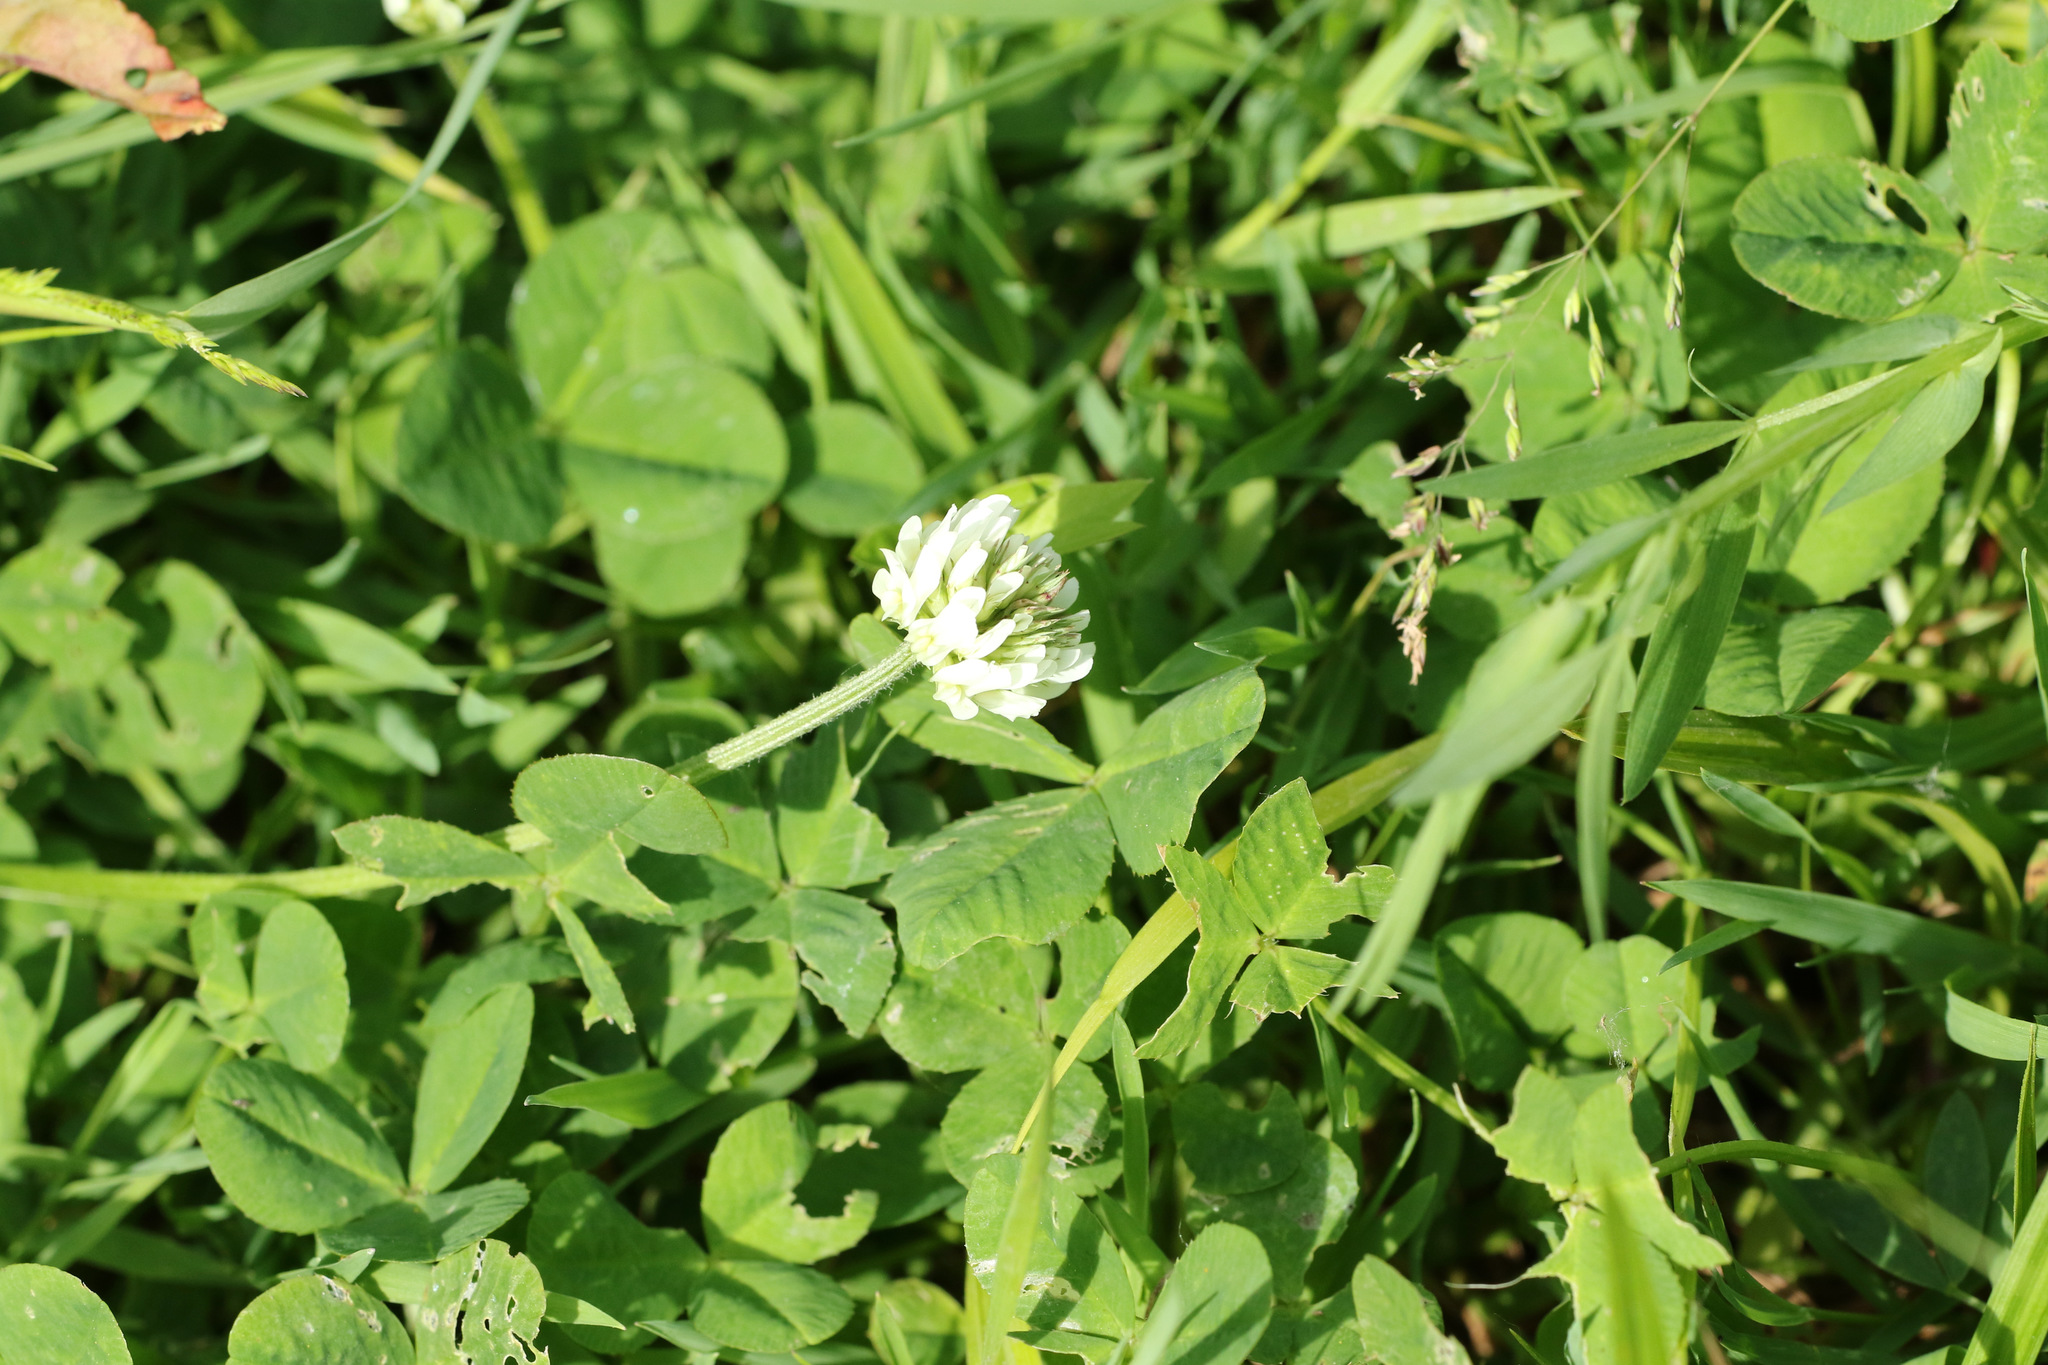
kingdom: Plantae
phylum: Tracheophyta
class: Magnoliopsida
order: Fabales
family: Fabaceae
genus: Trifolium
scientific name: Trifolium repens
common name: White clover
